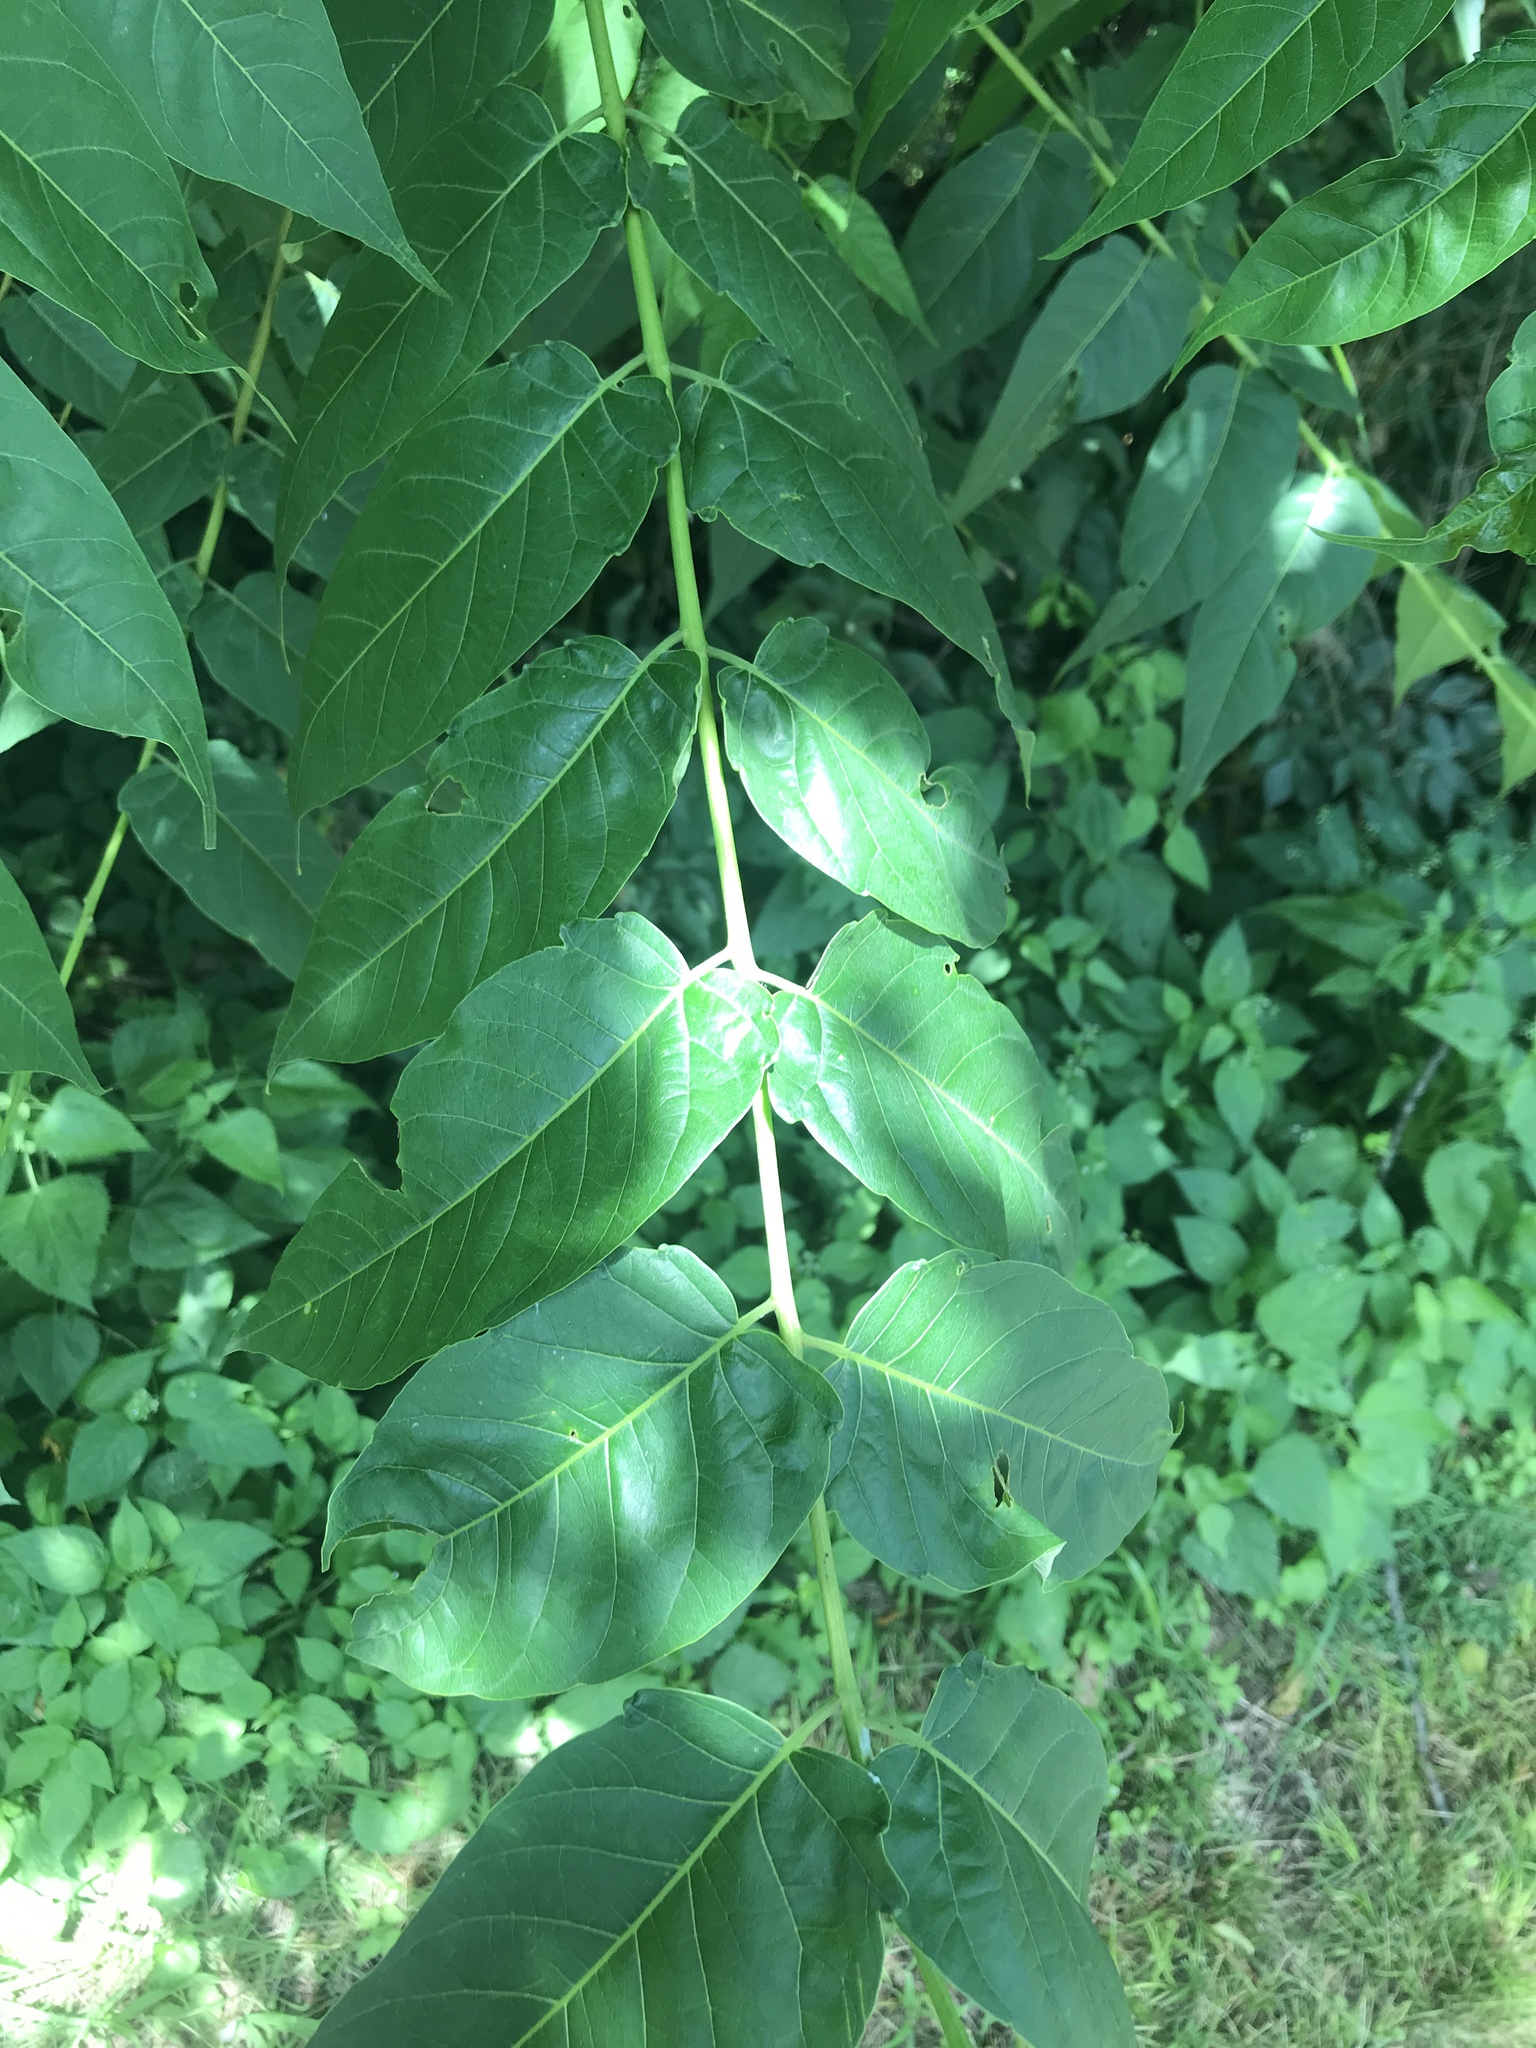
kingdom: Plantae
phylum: Tracheophyta
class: Magnoliopsida
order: Sapindales
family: Simaroubaceae
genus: Ailanthus
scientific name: Ailanthus altissima
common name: Tree-of-heaven
